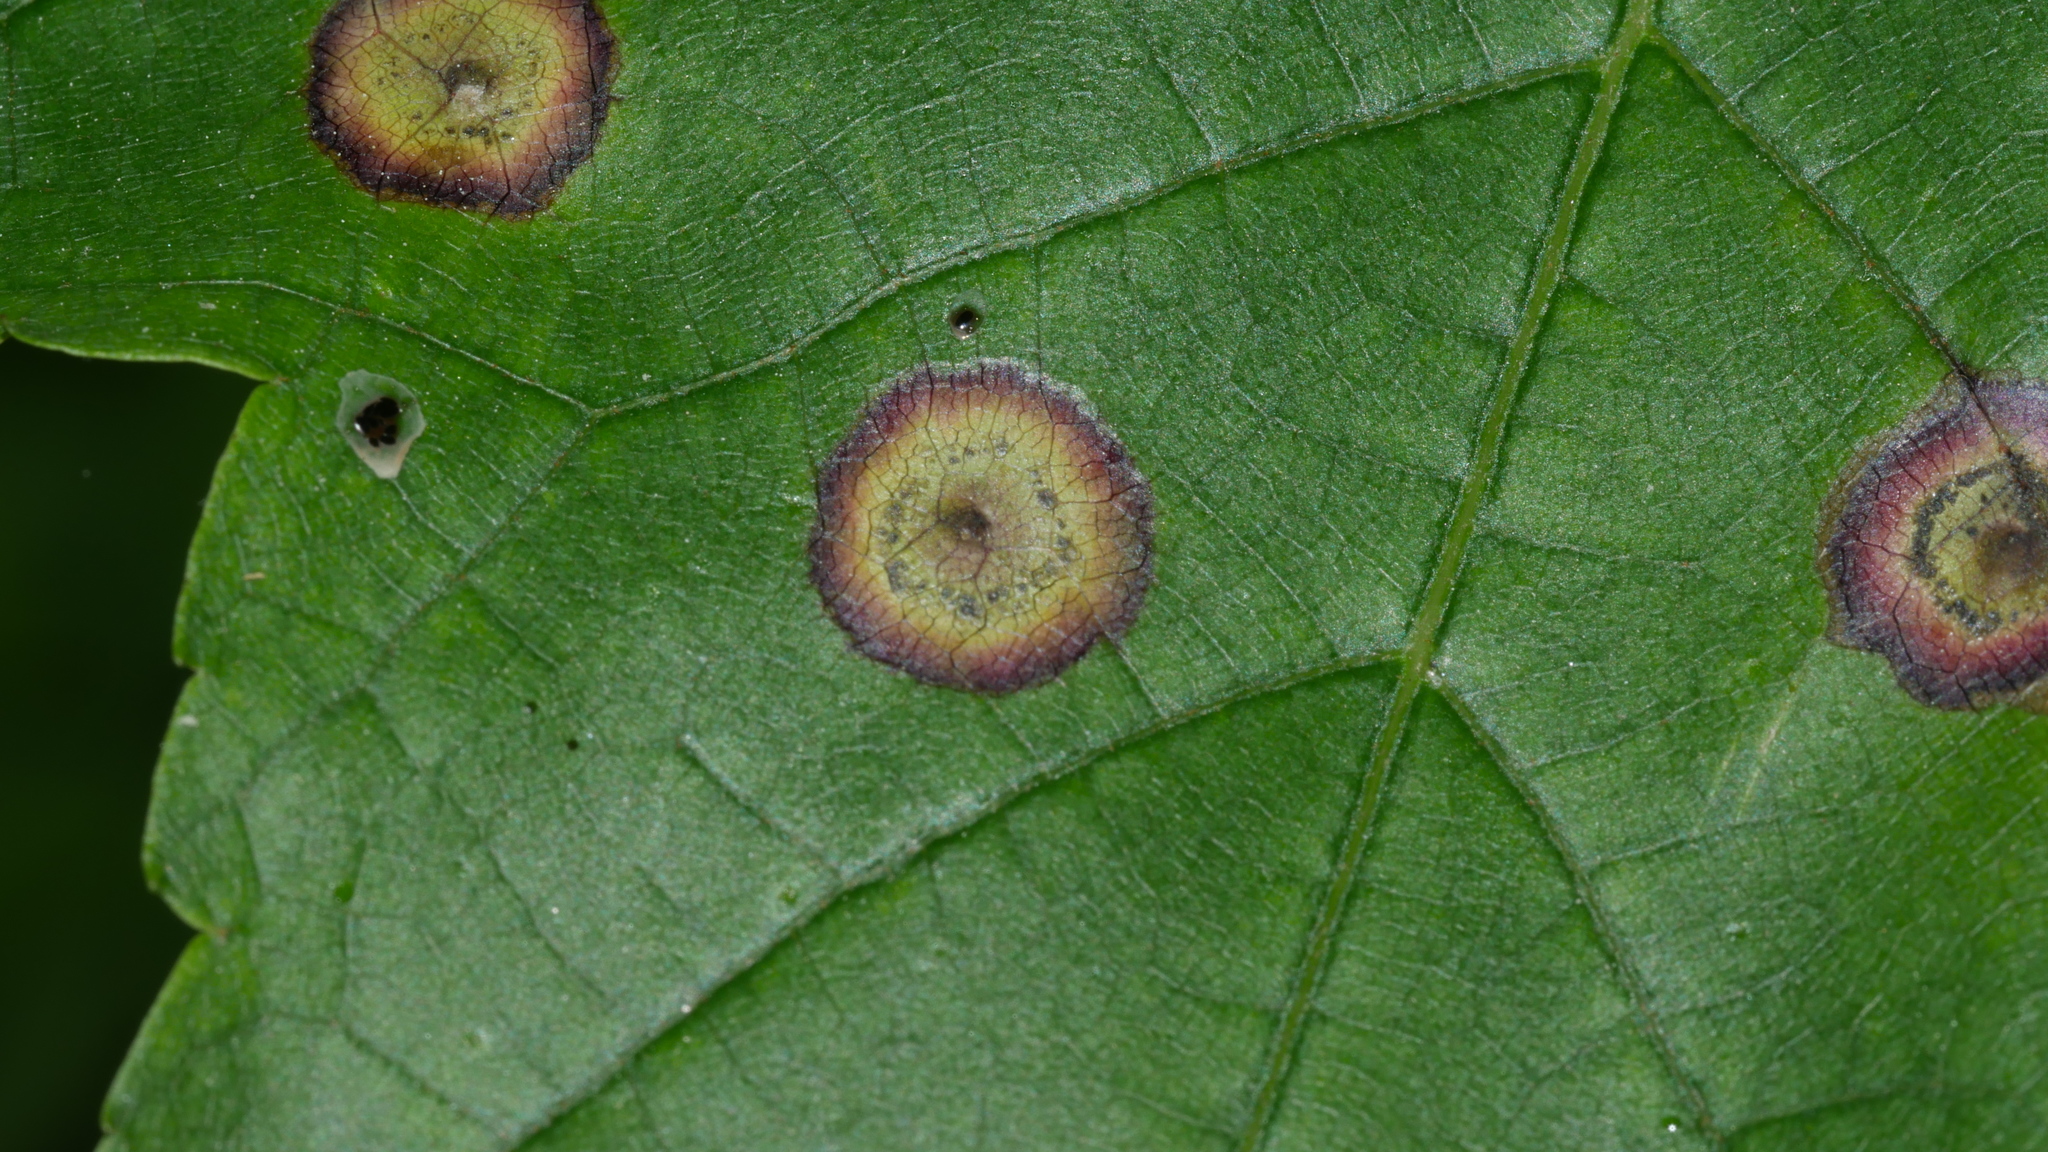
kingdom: Animalia
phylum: Arthropoda
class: Insecta
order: Diptera
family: Cecidomyiidae
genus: Acericecis
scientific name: Acericecis ocellaris
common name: Ocellate gall midge
